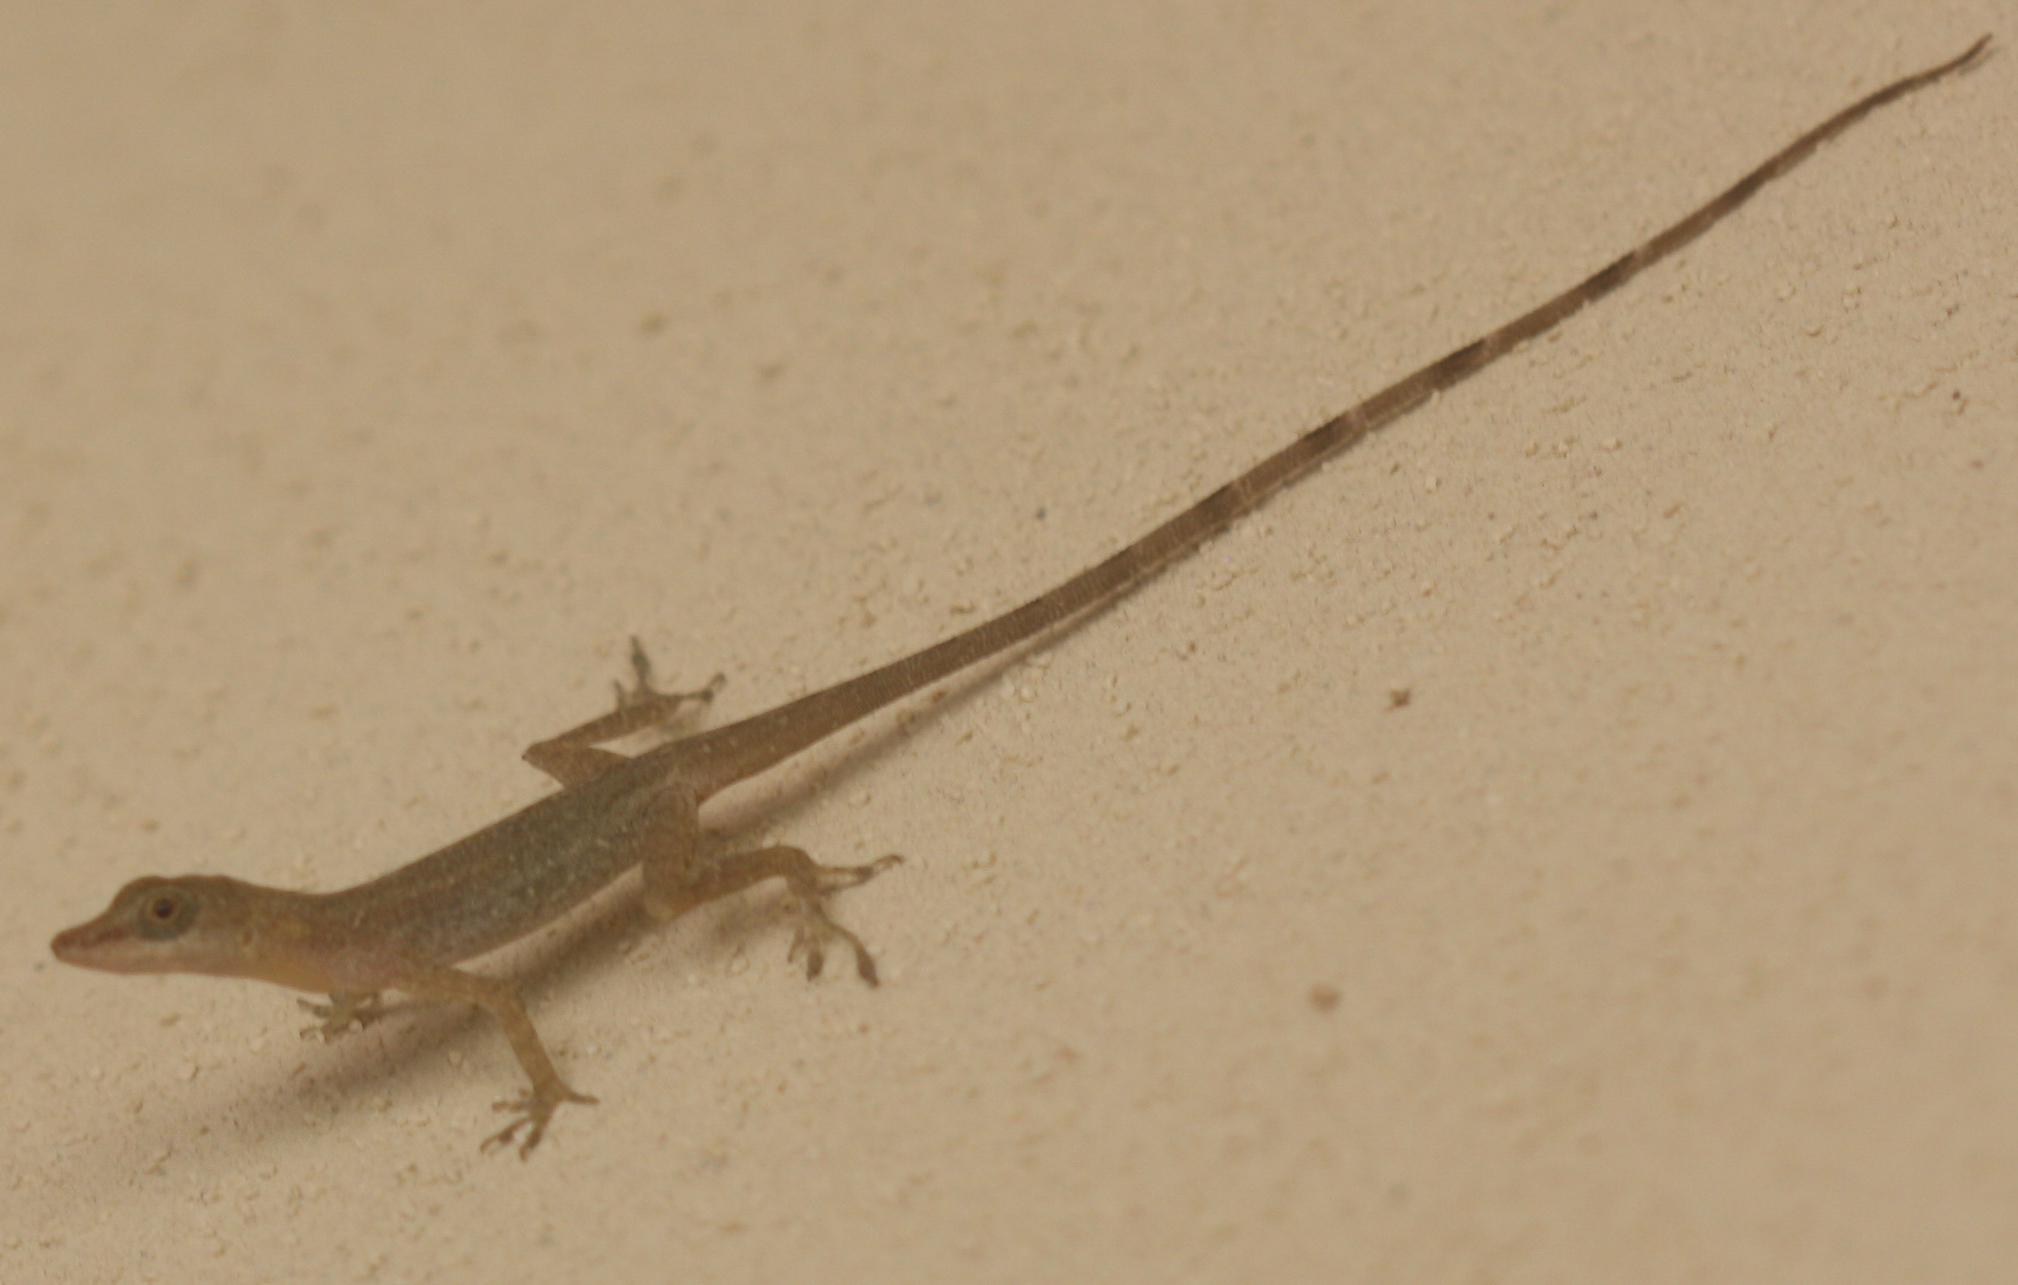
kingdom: Animalia
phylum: Chordata
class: Squamata
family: Dactyloidae
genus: Anolis
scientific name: Anolis limifrons
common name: Border anole
